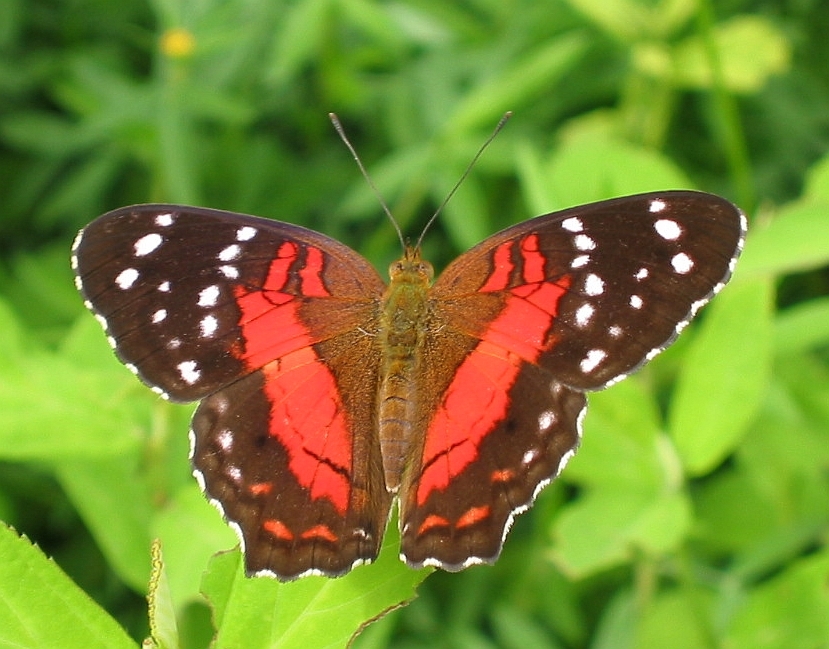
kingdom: Animalia
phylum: Arthropoda
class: Insecta
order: Lepidoptera
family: Nymphalidae
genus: Anartia
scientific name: Anartia amathea
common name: Red peacock
